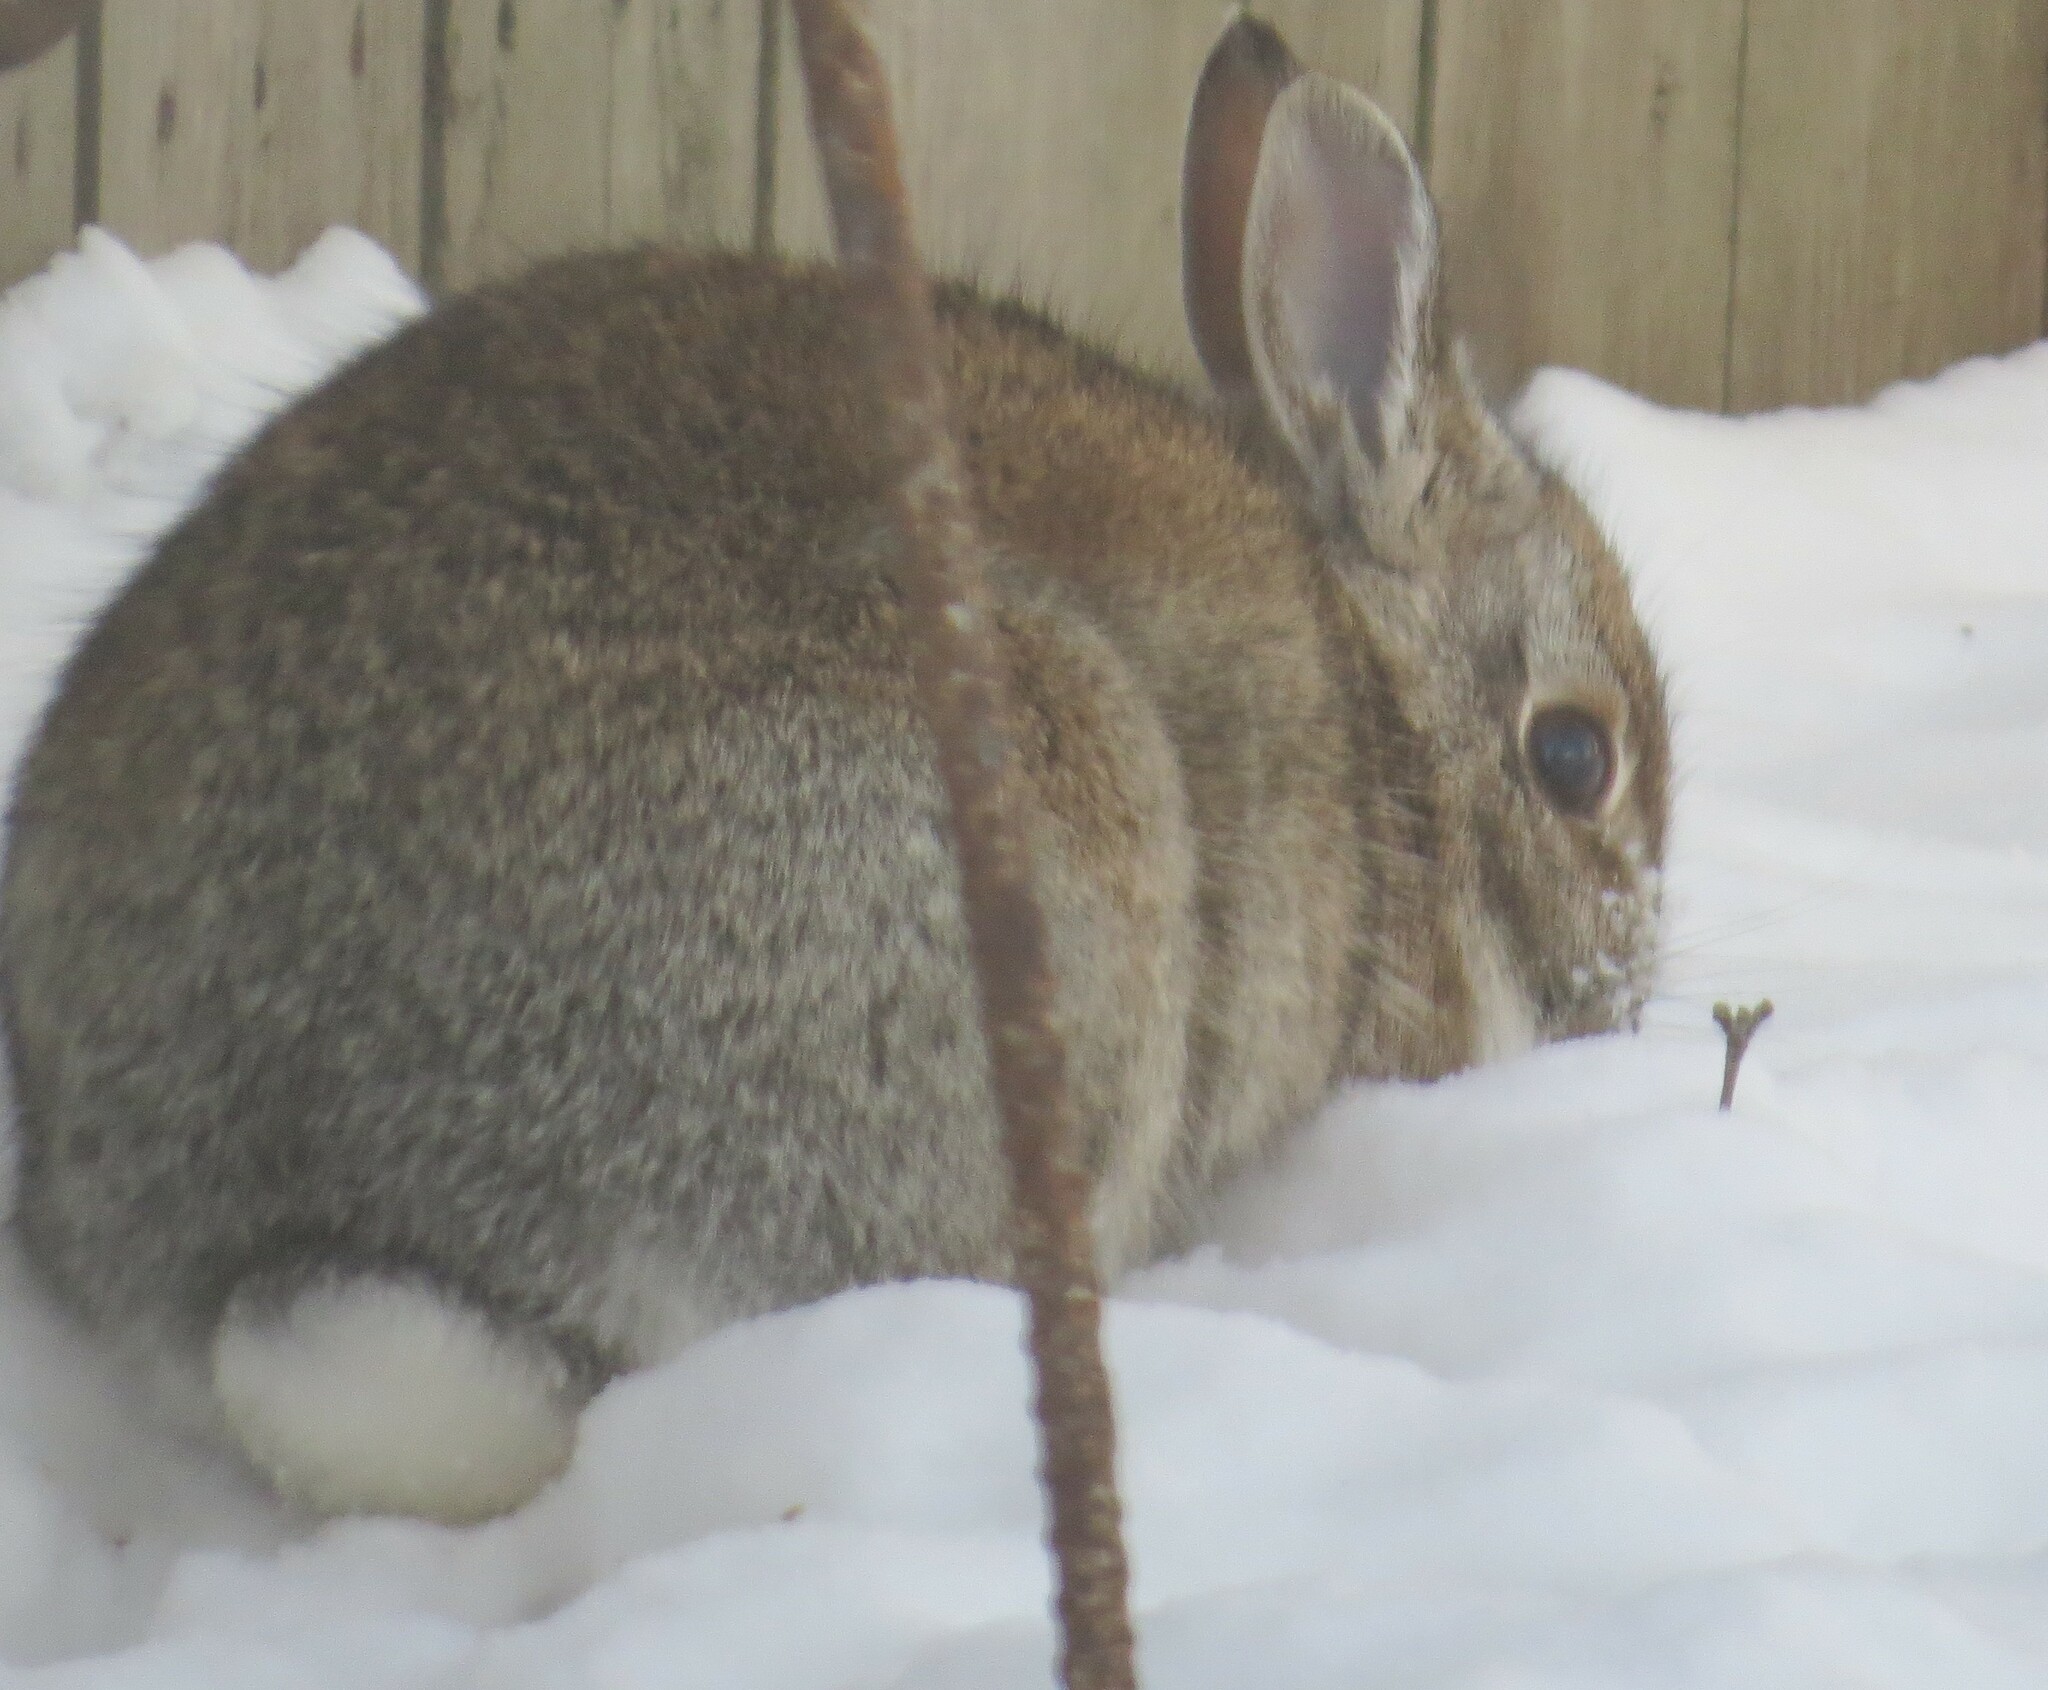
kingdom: Animalia
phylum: Chordata
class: Mammalia
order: Lagomorpha
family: Leporidae
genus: Sylvilagus
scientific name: Sylvilagus floridanus
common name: Eastern cottontail
